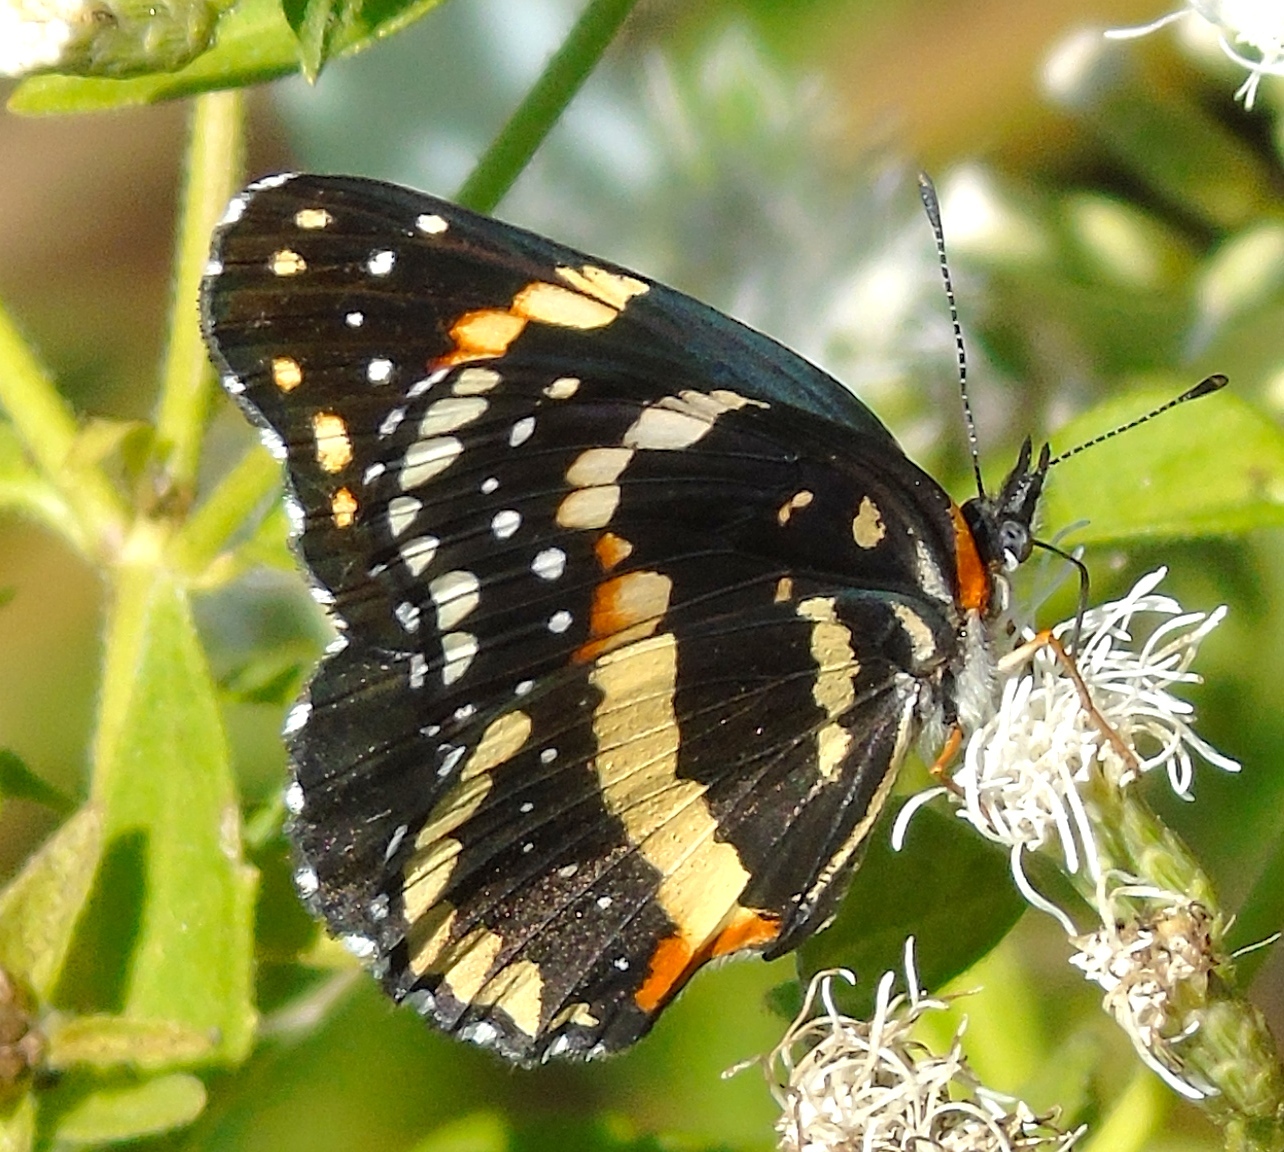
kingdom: Animalia
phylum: Arthropoda
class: Insecta
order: Lepidoptera
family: Nymphalidae
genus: Chlosyne
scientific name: Chlosyne lacinia
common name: Bordered patch
